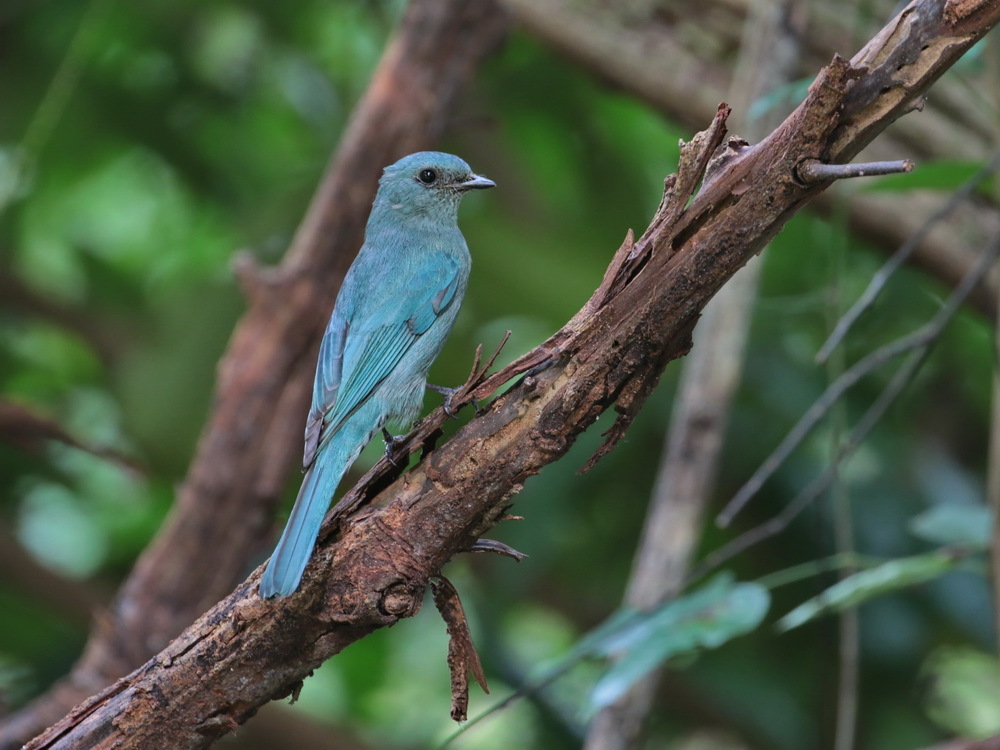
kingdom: Animalia
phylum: Chordata
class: Aves
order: Passeriformes
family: Muscicapidae
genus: Eumyias
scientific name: Eumyias thalassinus
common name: Verditer flycatcher
